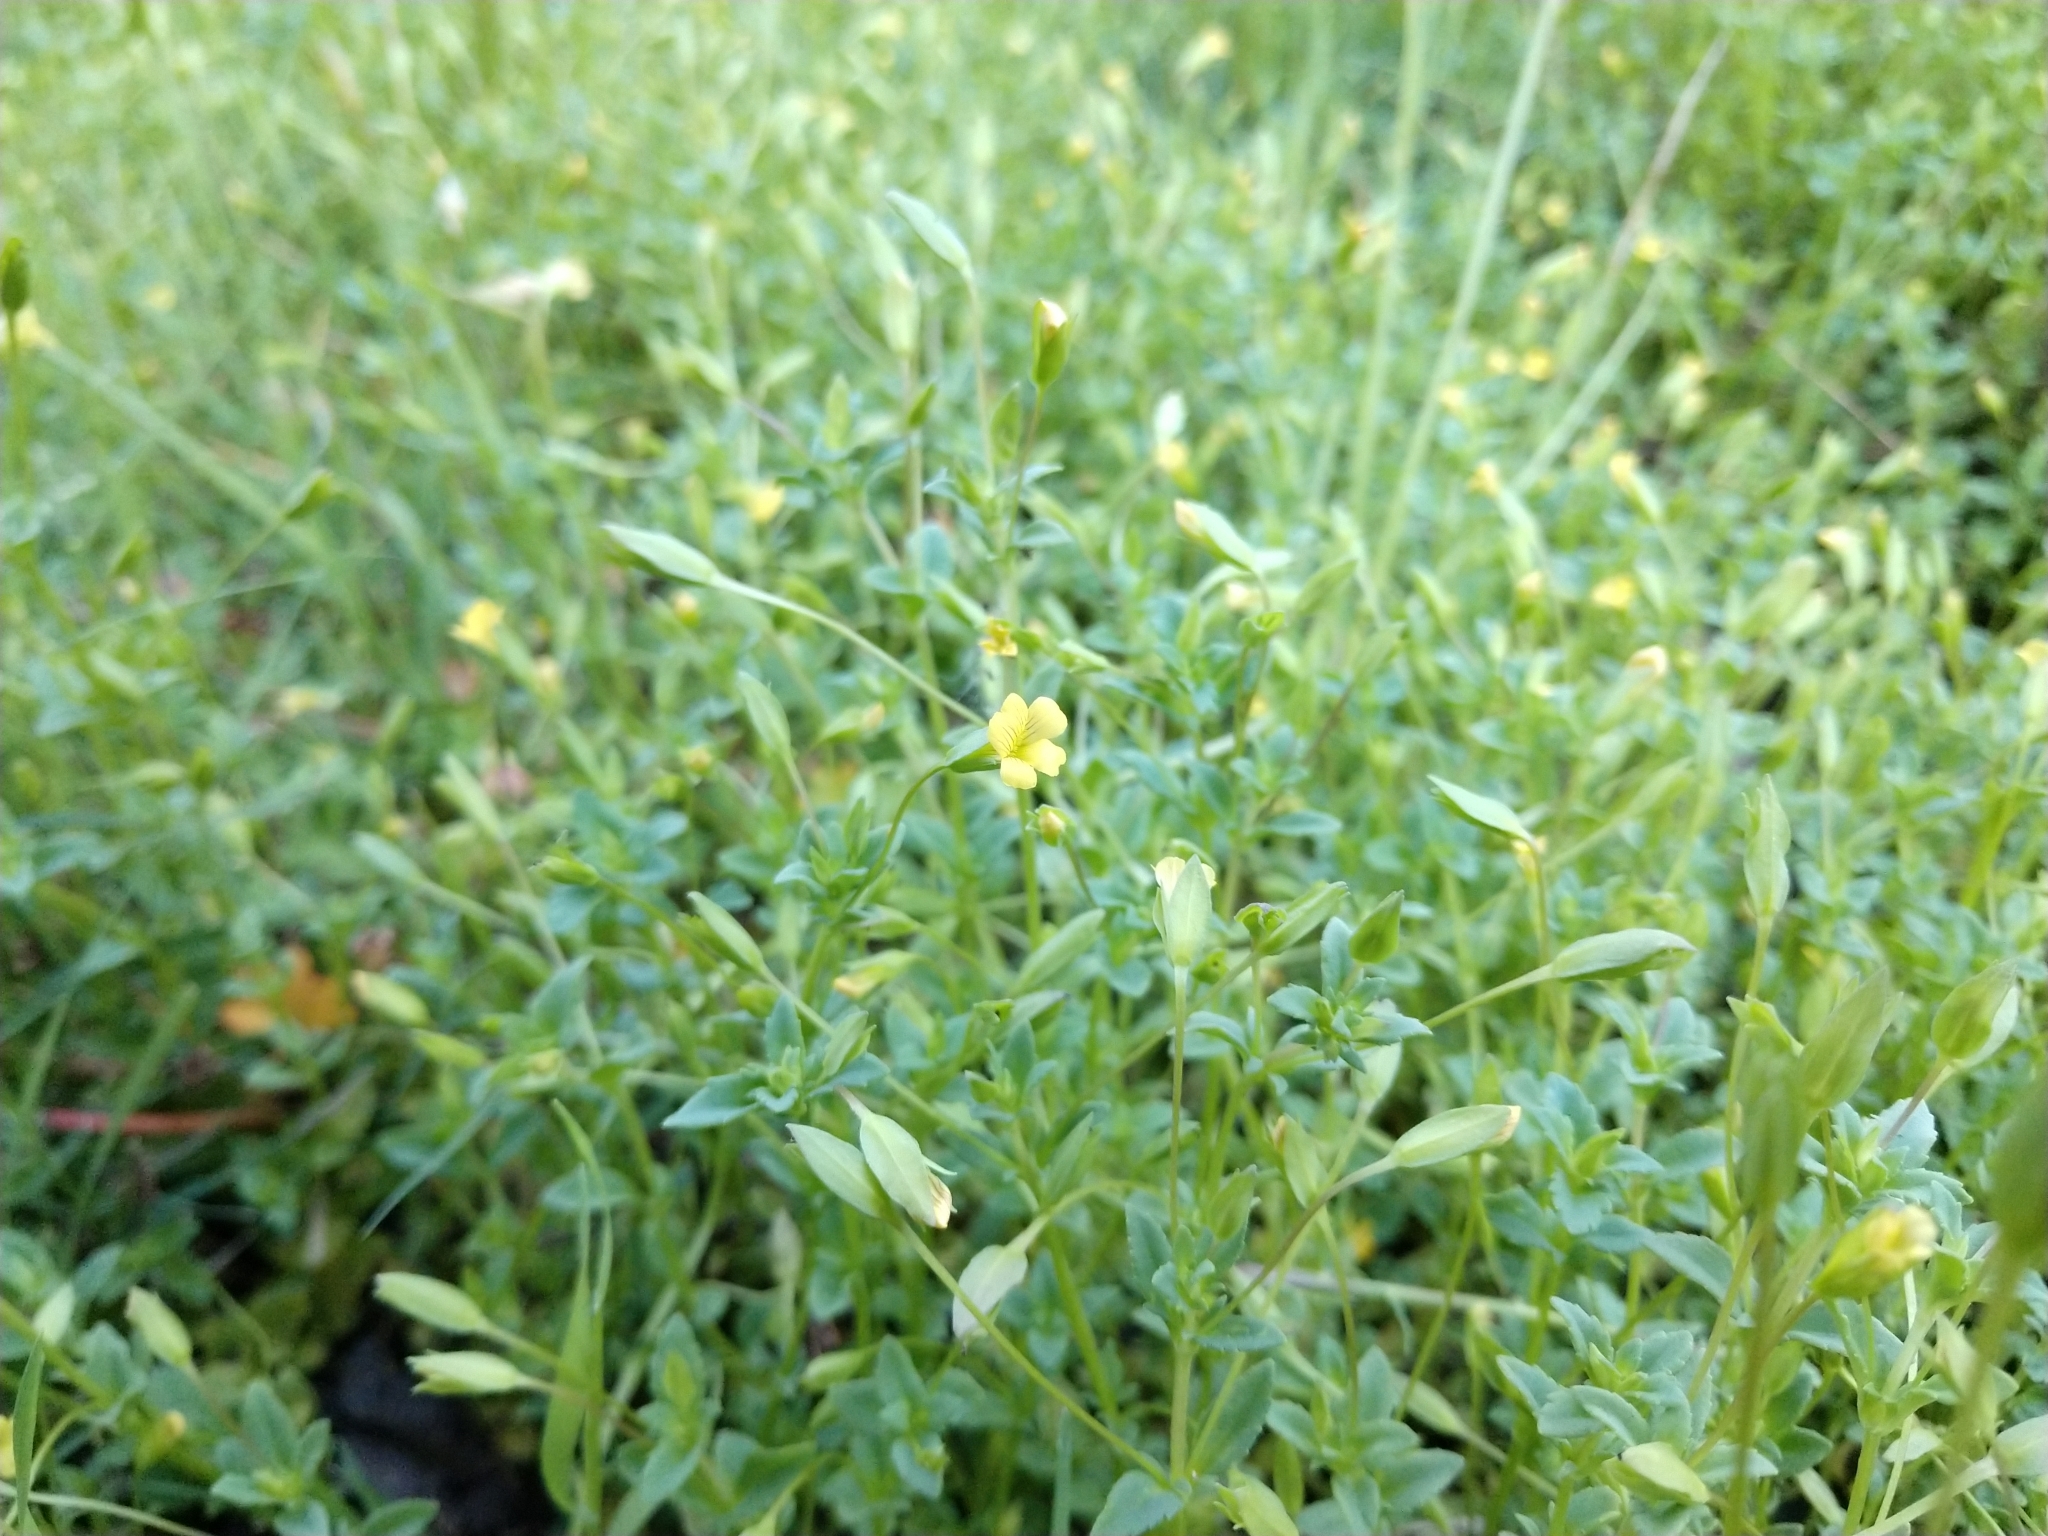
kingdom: Plantae
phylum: Tracheophyta
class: Magnoliopsida
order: Lamiales
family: Plantaginaceae
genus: Mecardonia
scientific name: Mecardonia procumbens
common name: Baby jump-up
